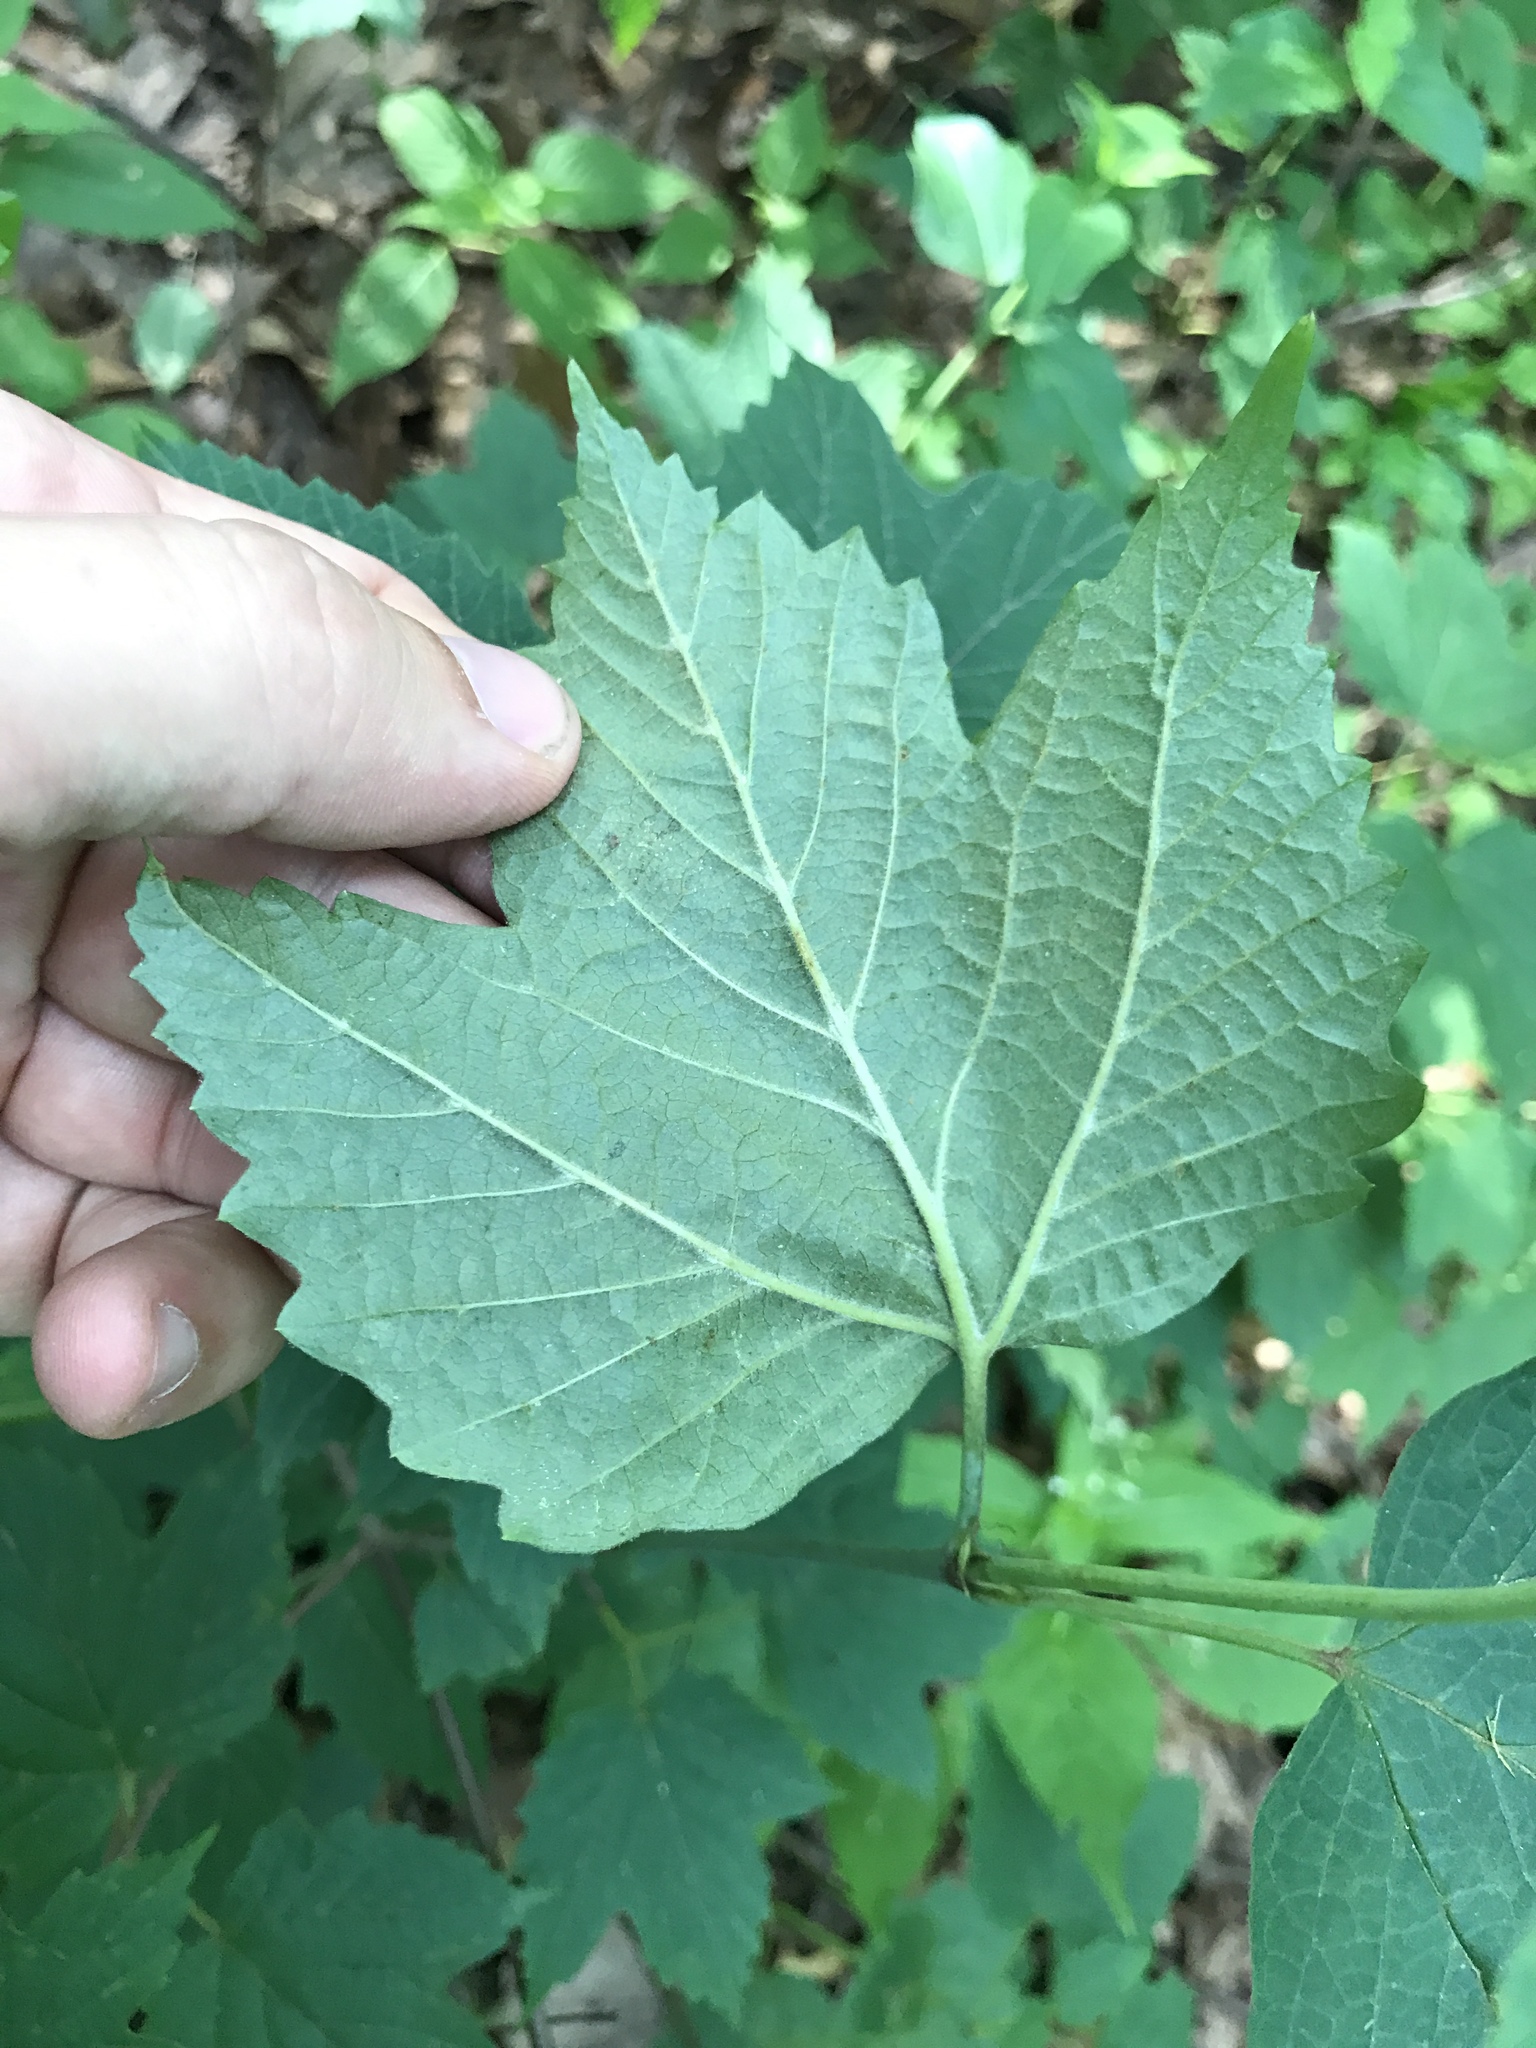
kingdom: Plantae
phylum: Tracheophyta
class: Magnoliopsida
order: Dipsacales
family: Viburnaceae
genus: Viburnum
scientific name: Viburnum acerifolium
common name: Dockmackie
